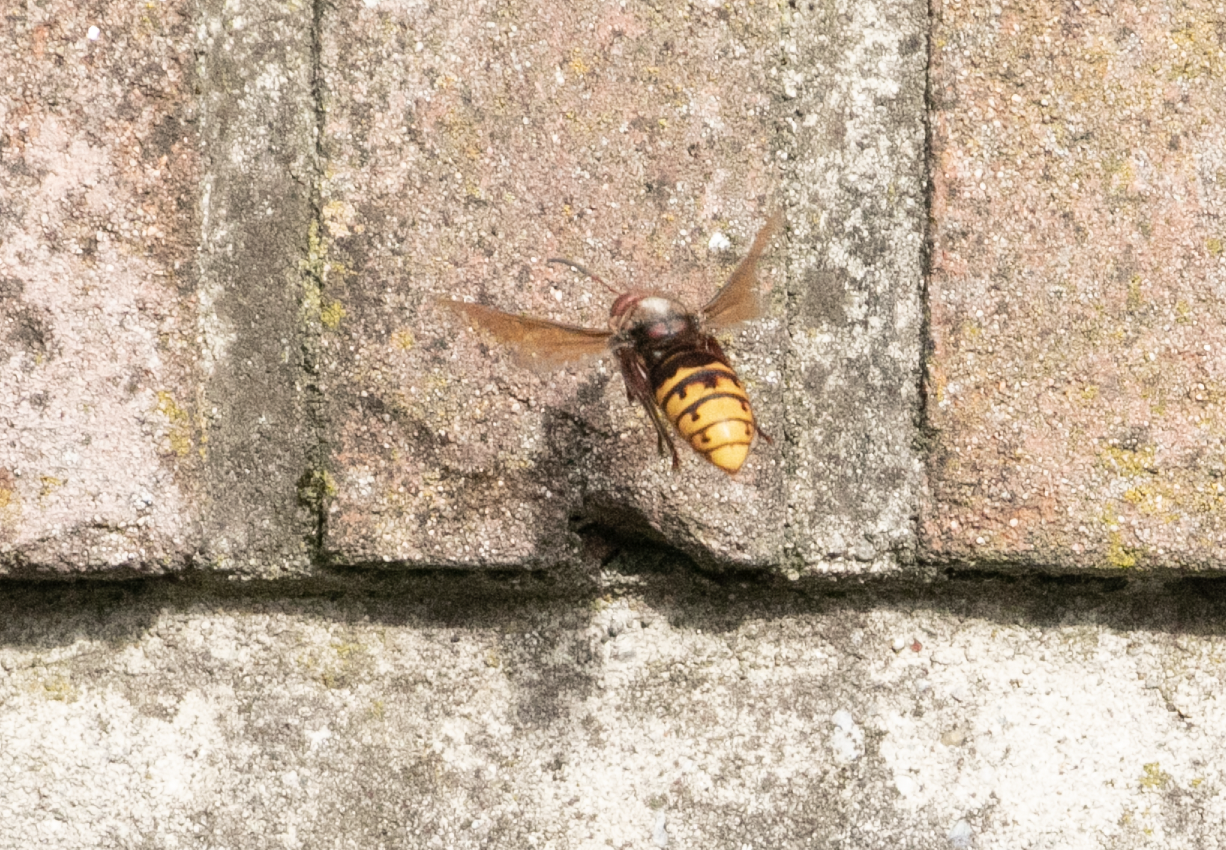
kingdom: Animalia
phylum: Arthropoda
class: Insecta
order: Hymenoptera
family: Vespidae
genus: Vespa
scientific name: Vespa crabro
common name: Hornet
